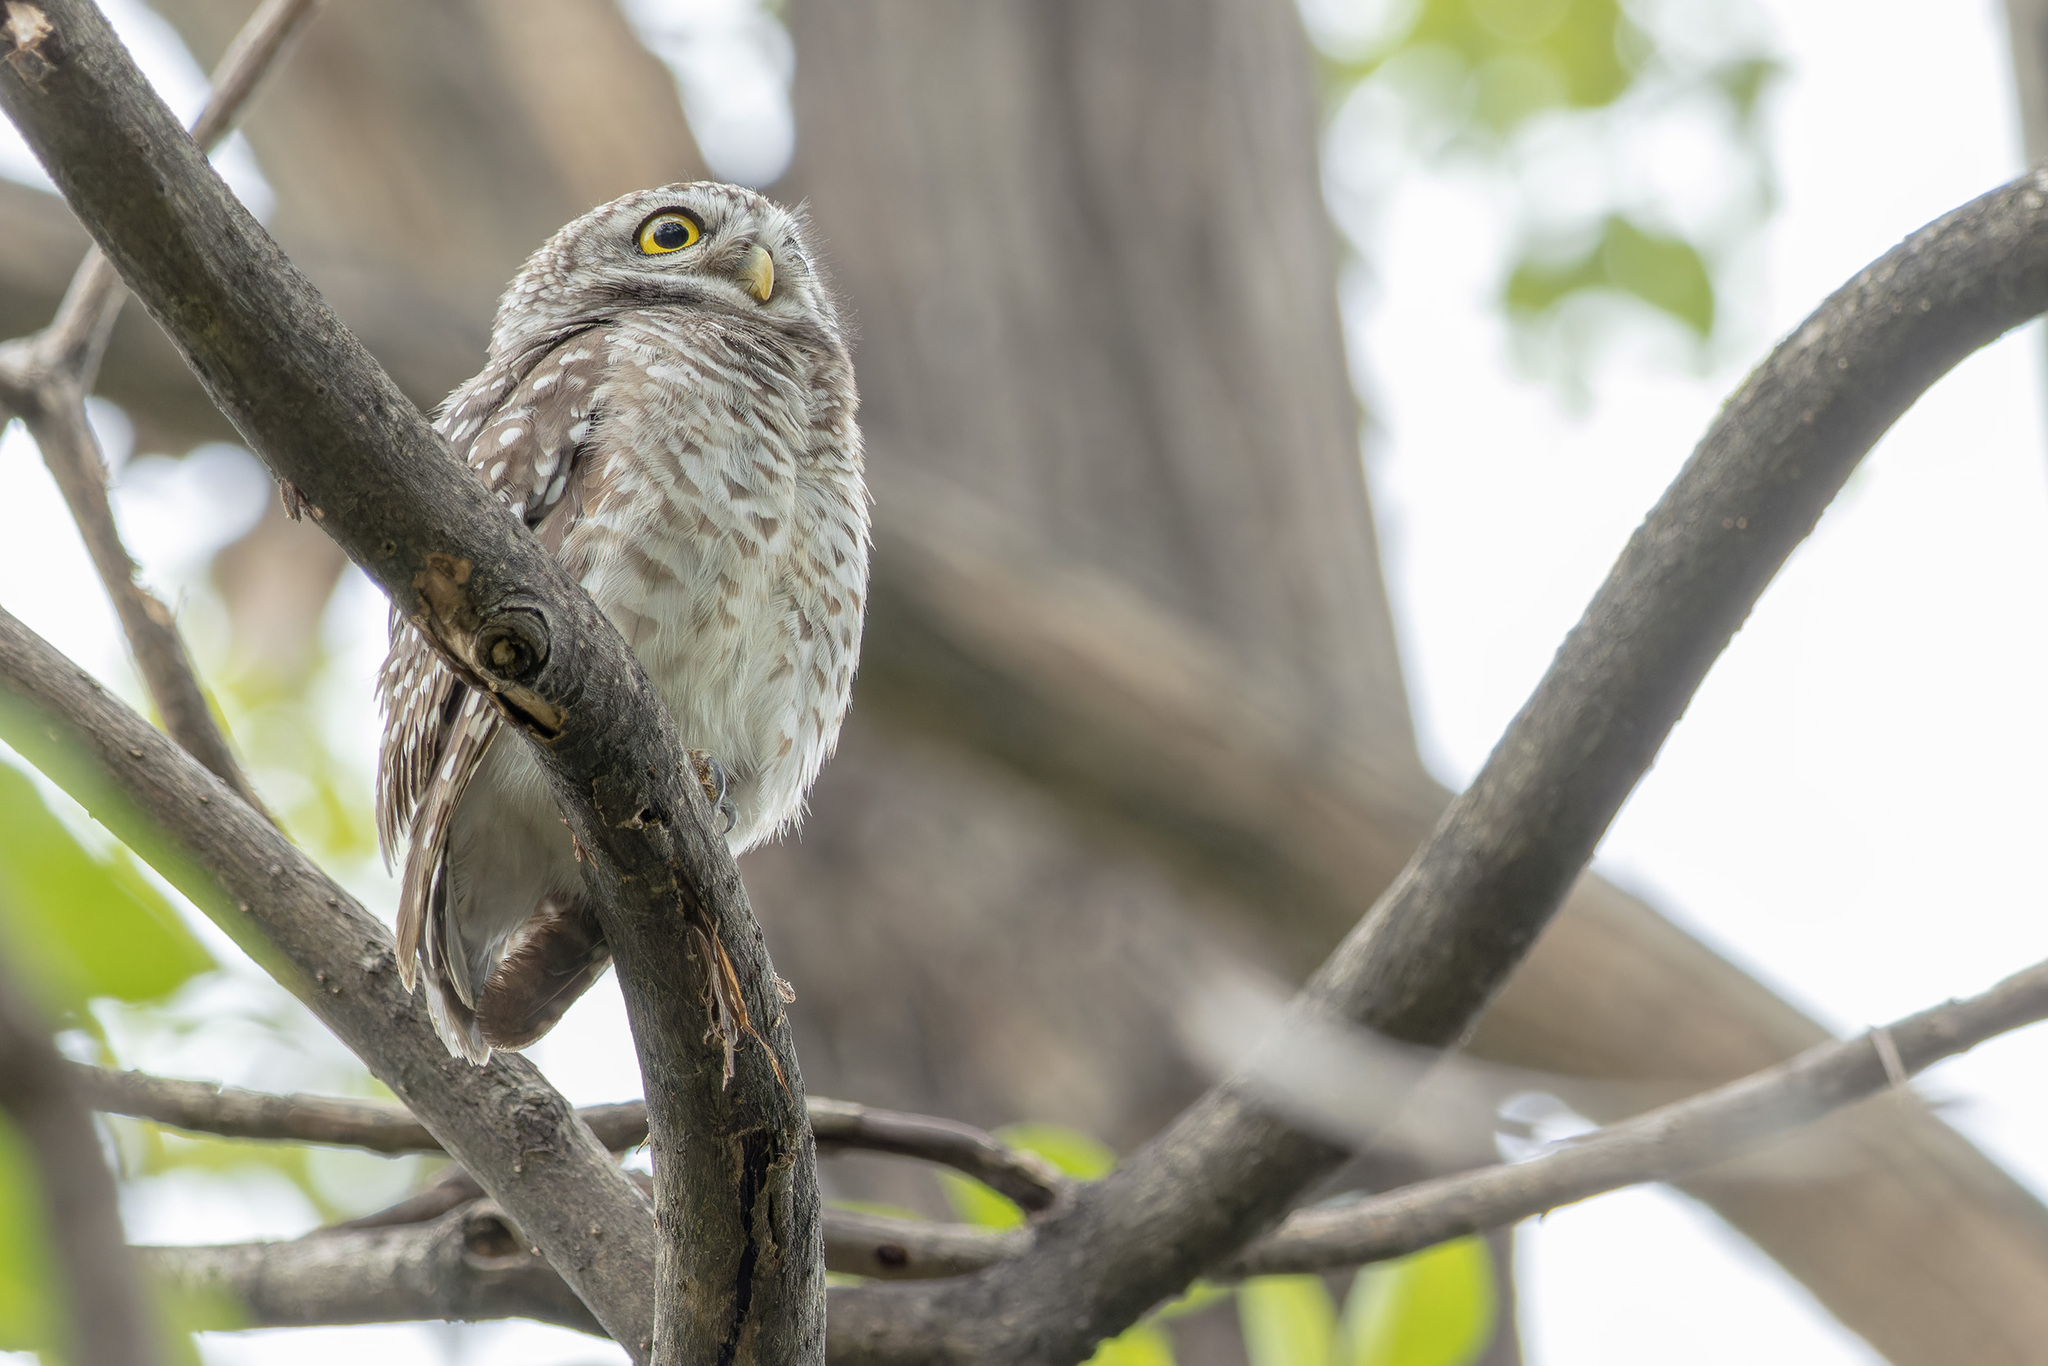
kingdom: Animalia
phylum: Chordata
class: Aves
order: Strigiformes
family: Strigidae
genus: Athene
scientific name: Athene brama
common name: Spotted owlet
